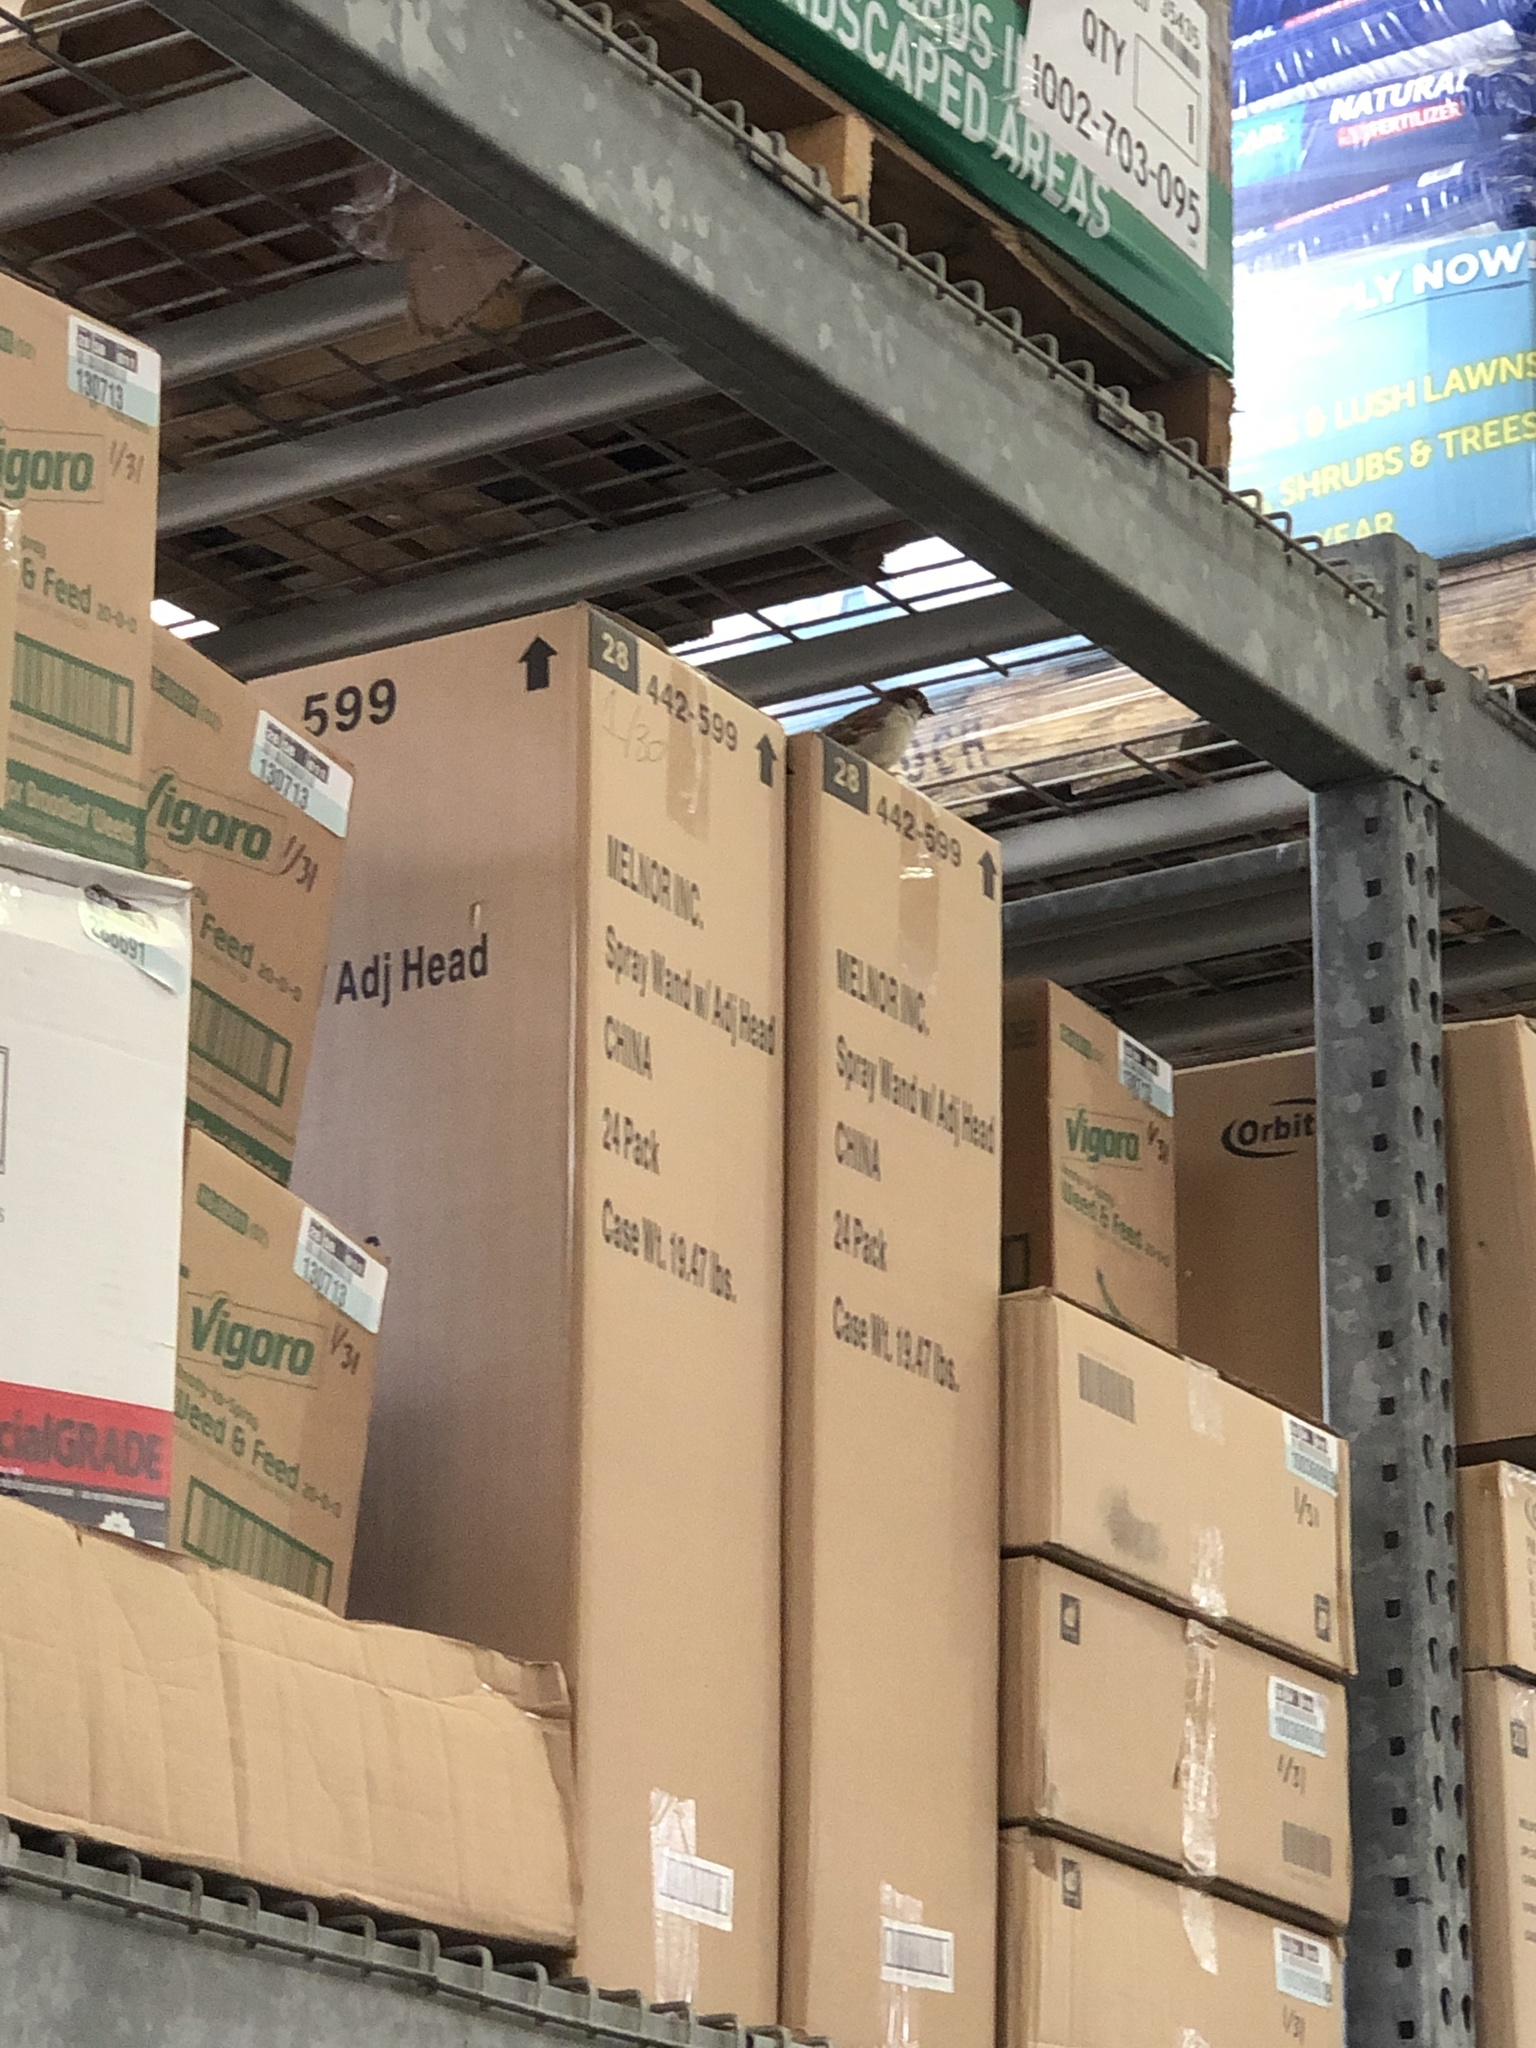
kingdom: Animalia
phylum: Chordata
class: Aves
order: Passeriformes
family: Passeridae
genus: Passer
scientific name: Passer domesticus
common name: House sparrow
